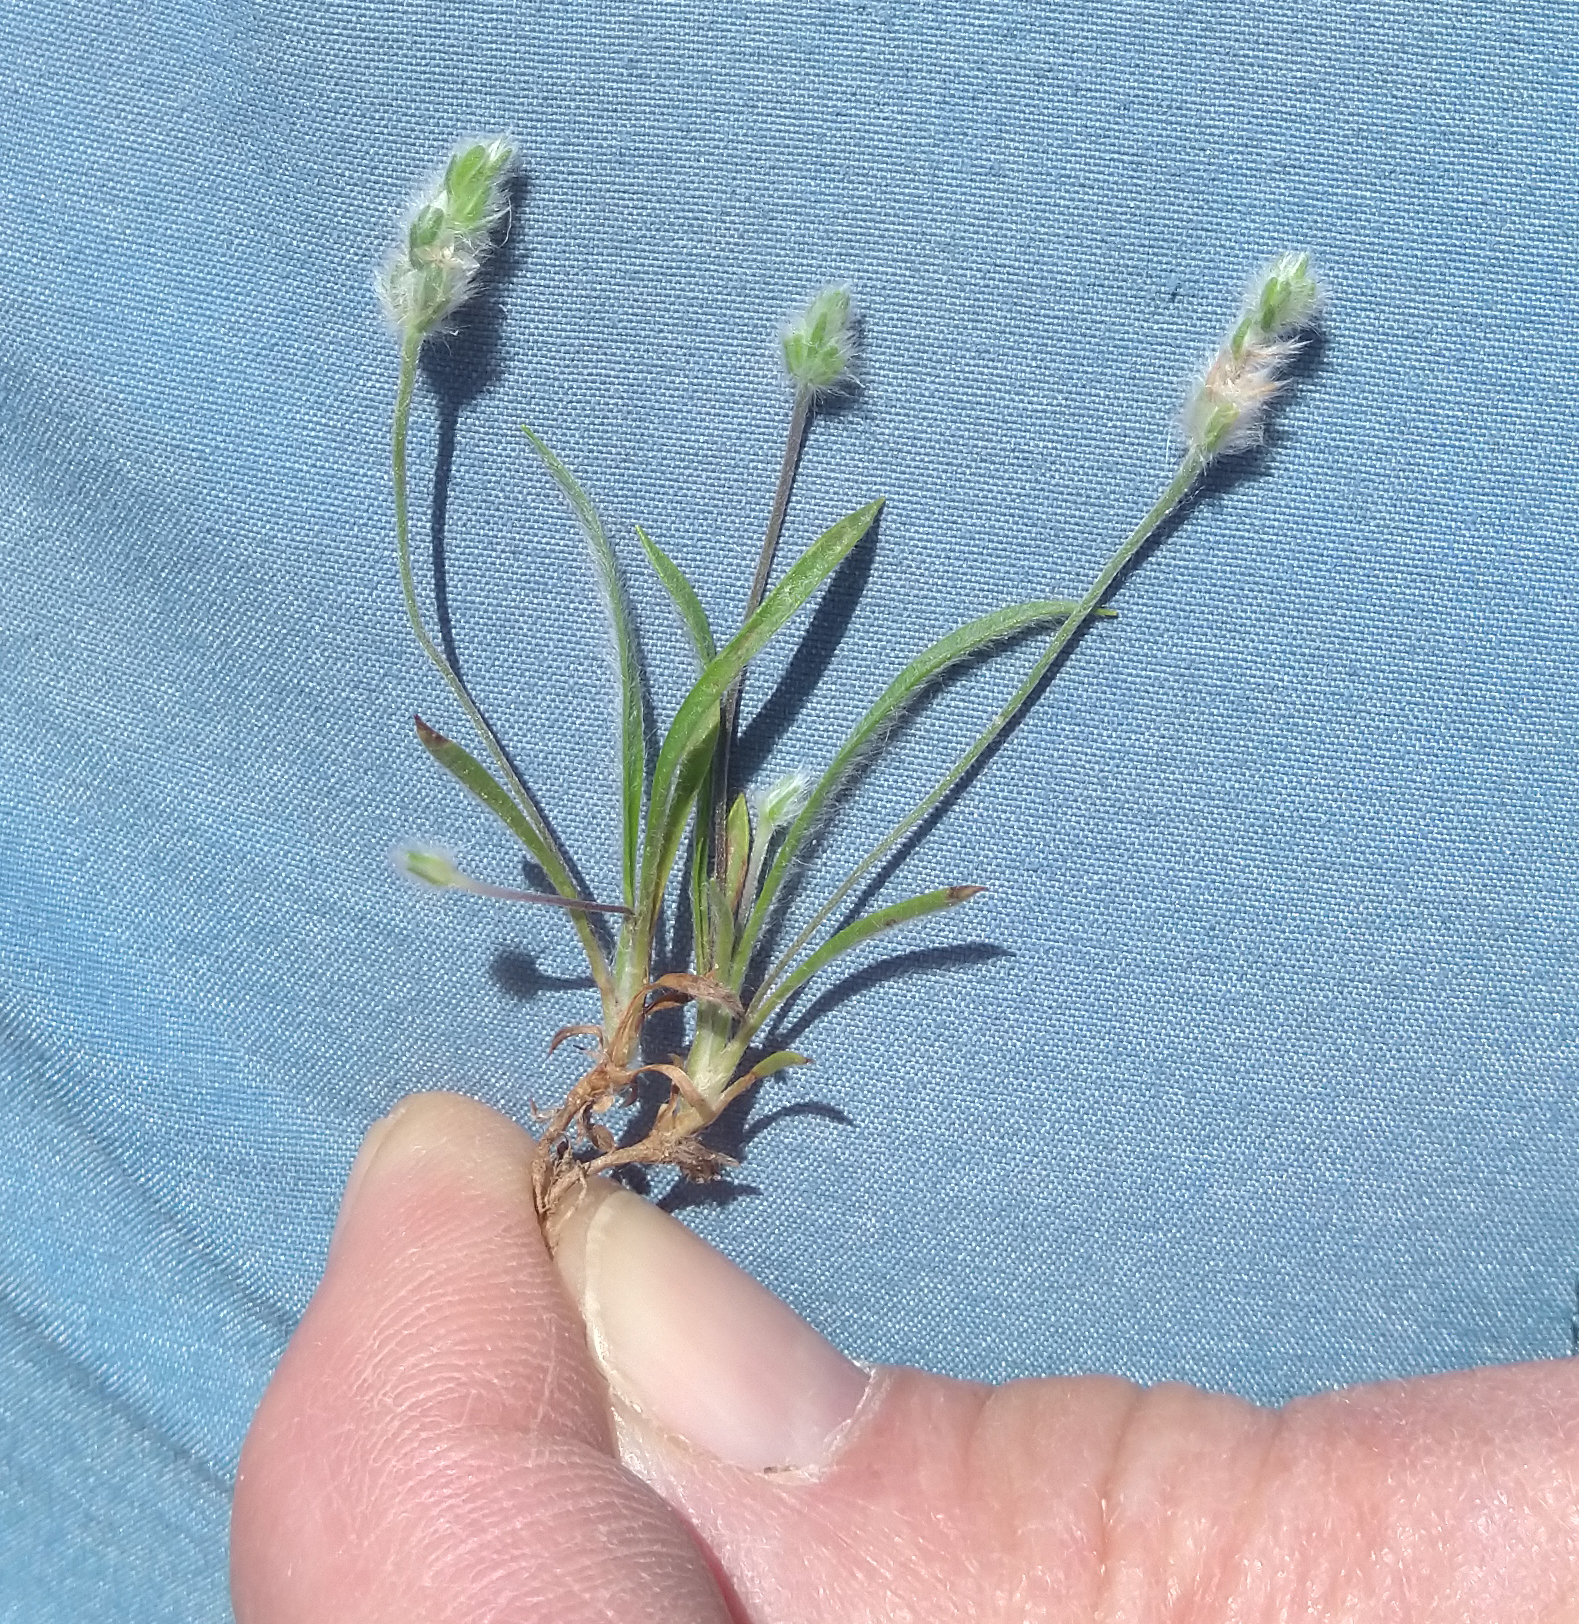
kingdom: Plantae
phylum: Tracheophyta
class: Magnoliopsida
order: Lamiales
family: Plantaginaceae
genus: Plantago
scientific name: Plantago patagonica
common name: Patagonia indian-wheat
